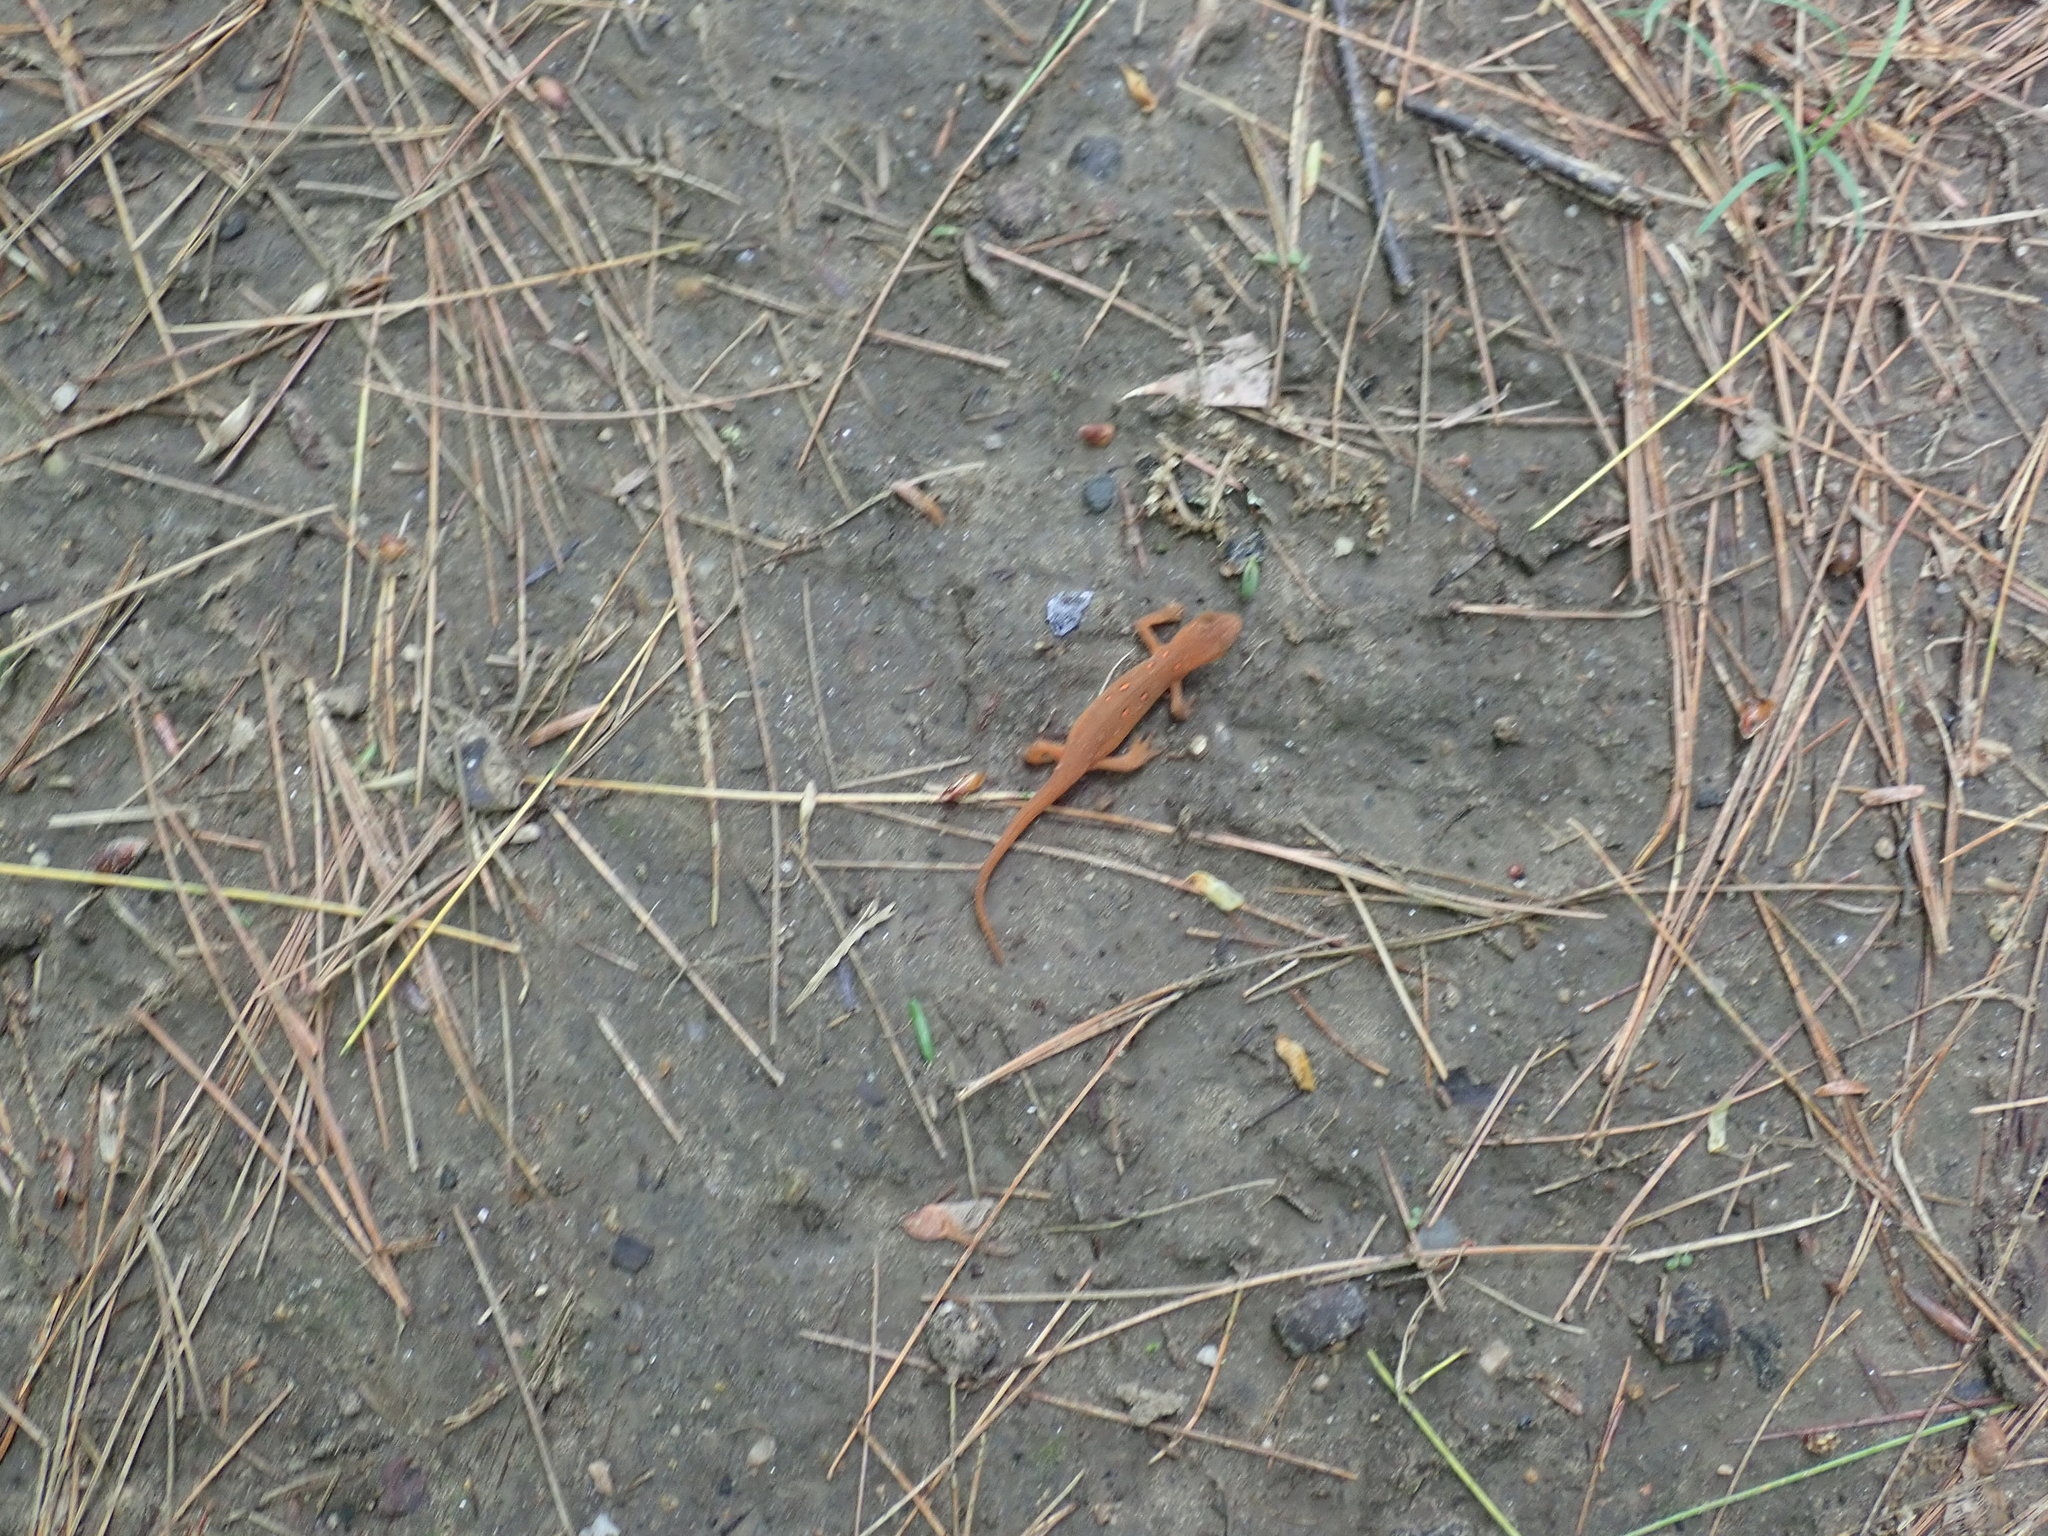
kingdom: Animalia
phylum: Chordata
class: Amphibia
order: Caudata
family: Salamandridae
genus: Notophthalmus
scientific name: Notophthalmus viridescens
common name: Eastern newt
